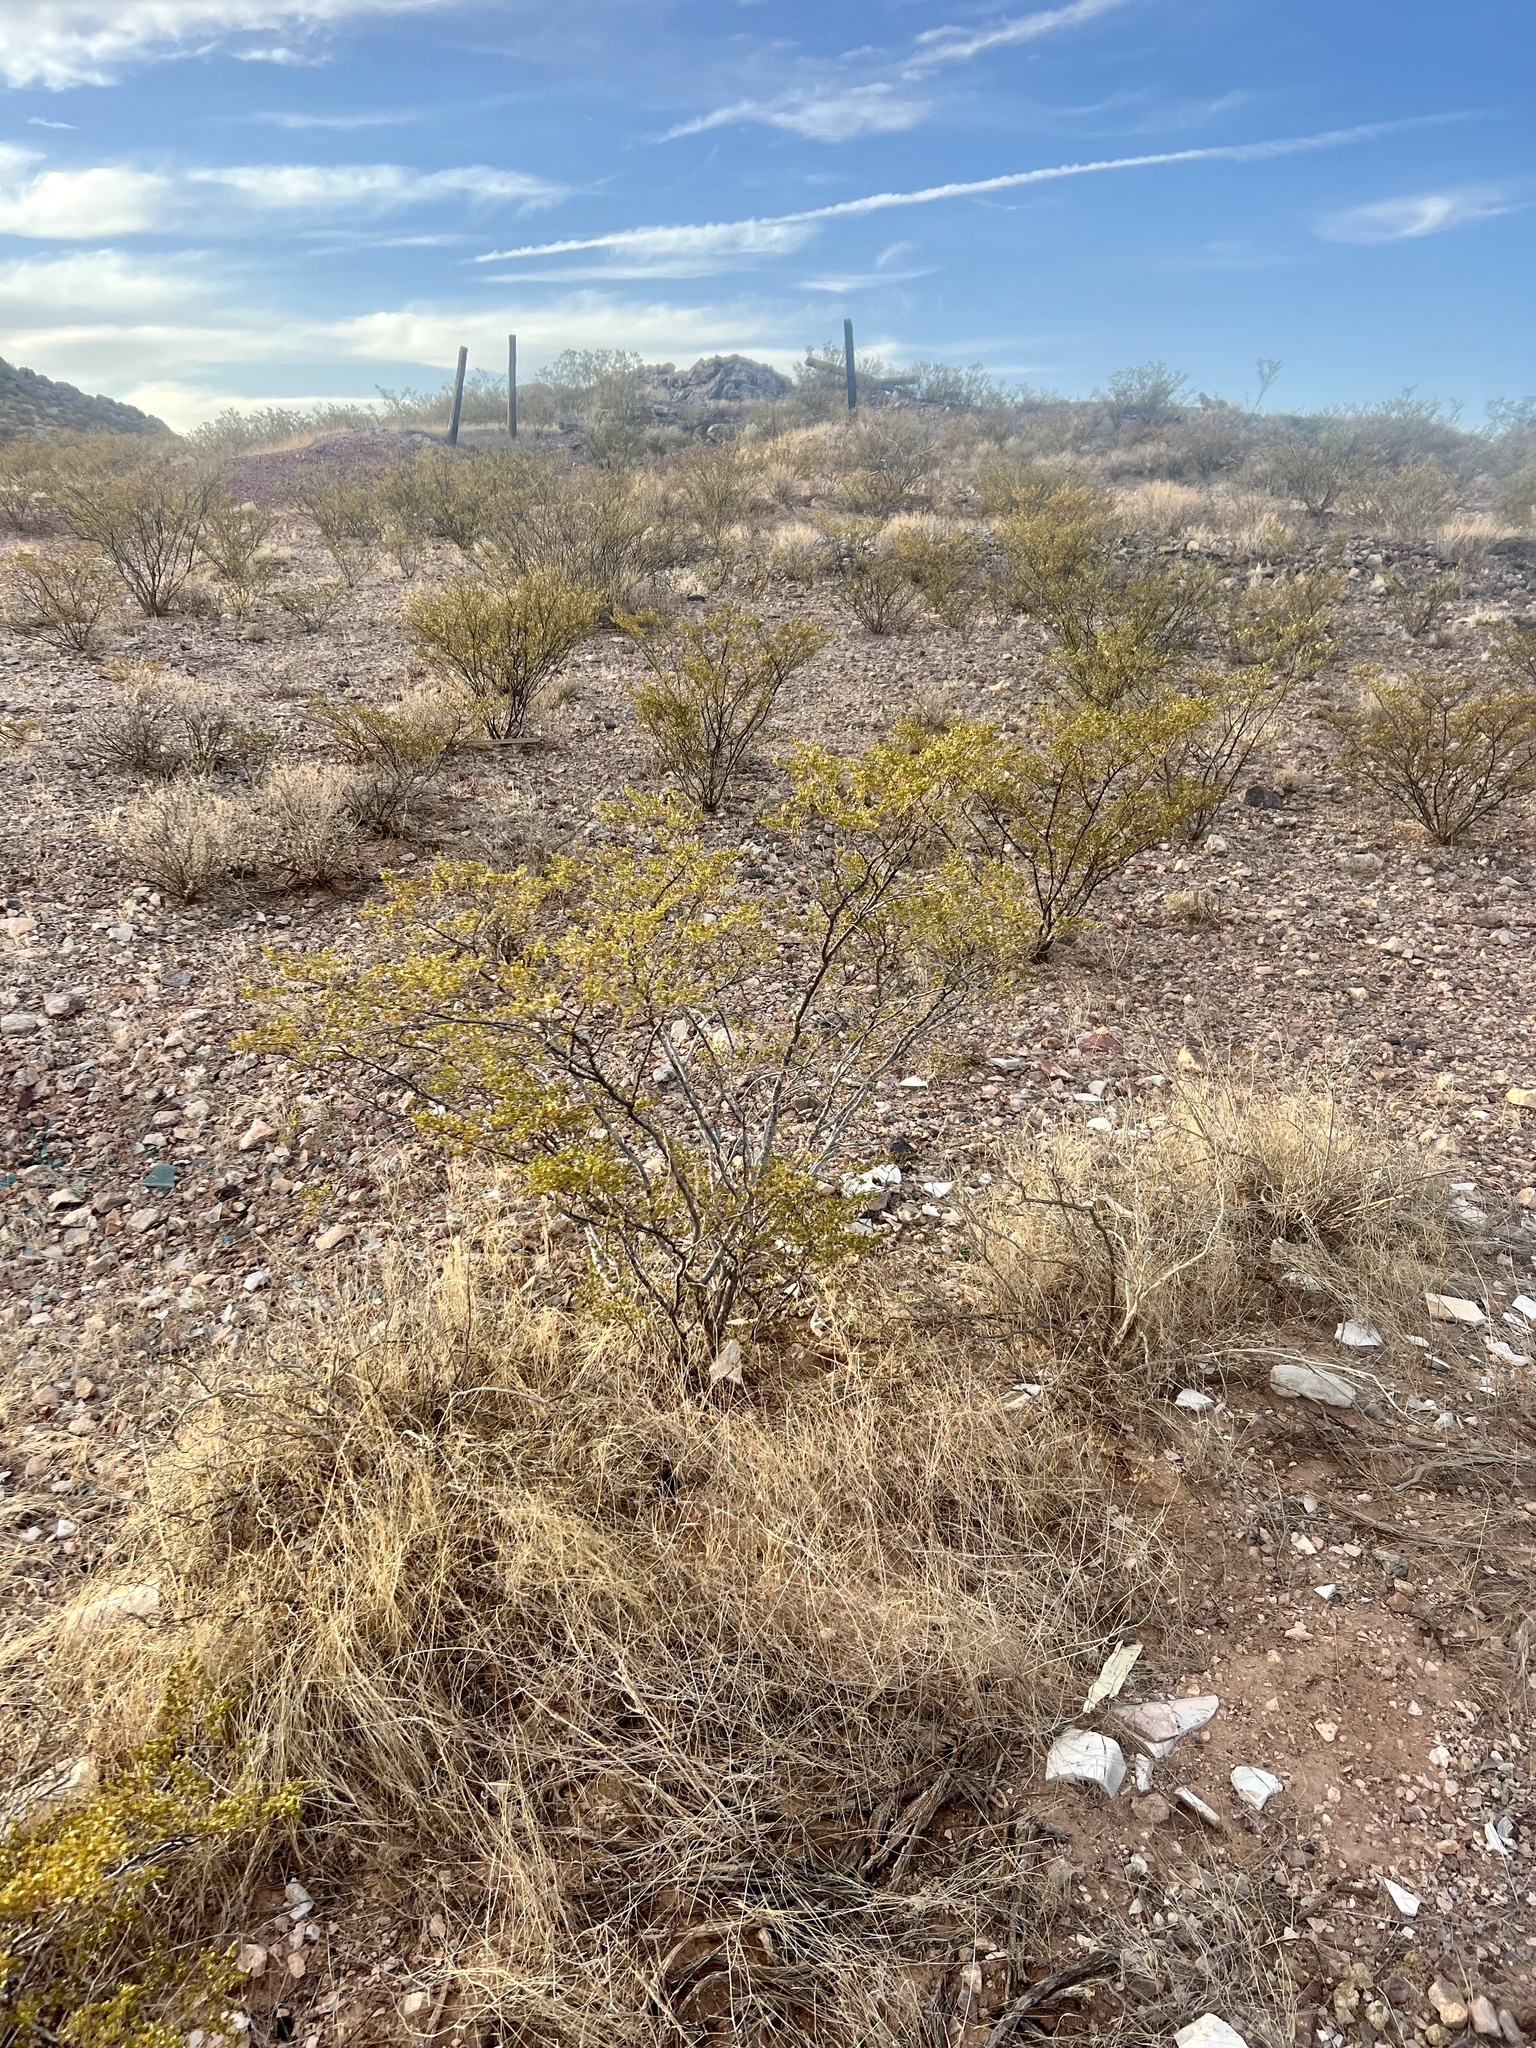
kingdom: Plantae
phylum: Tracheophyta
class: Magnoliopsida
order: Zygophyllales
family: Zygophyllaceae
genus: Larrea
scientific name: Larrea tridentata
